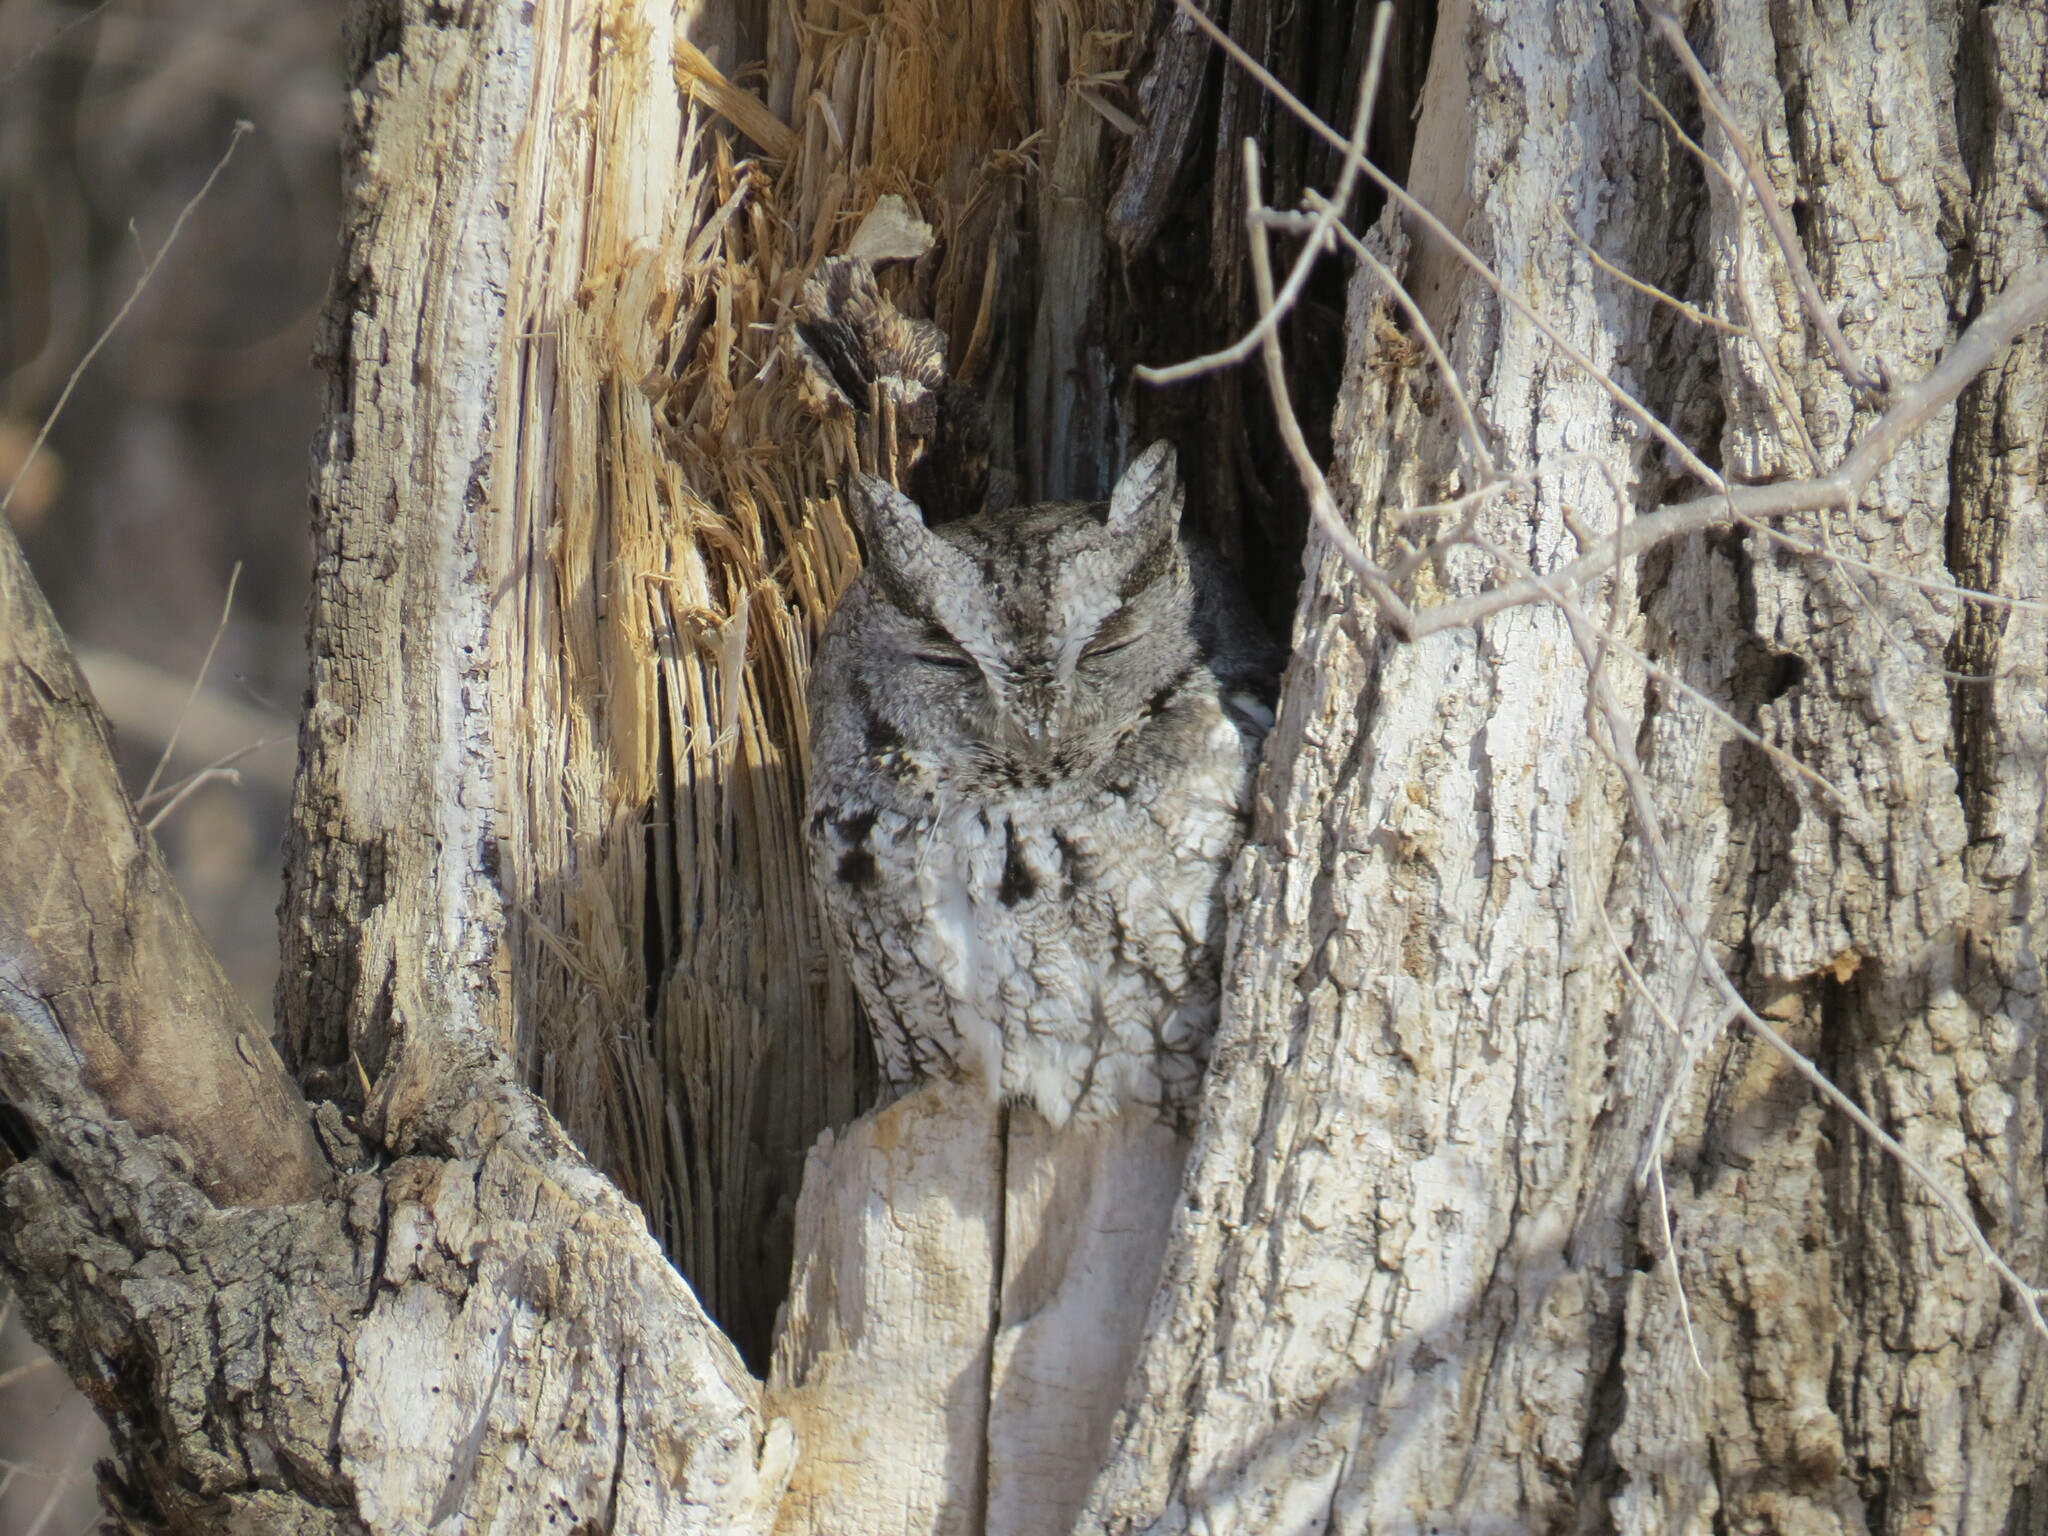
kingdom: Animalia
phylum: Chordata
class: Aves
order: Strigiformes
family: Strigidae
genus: Megascops
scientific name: Megascops asio
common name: Eastern screech-owl
